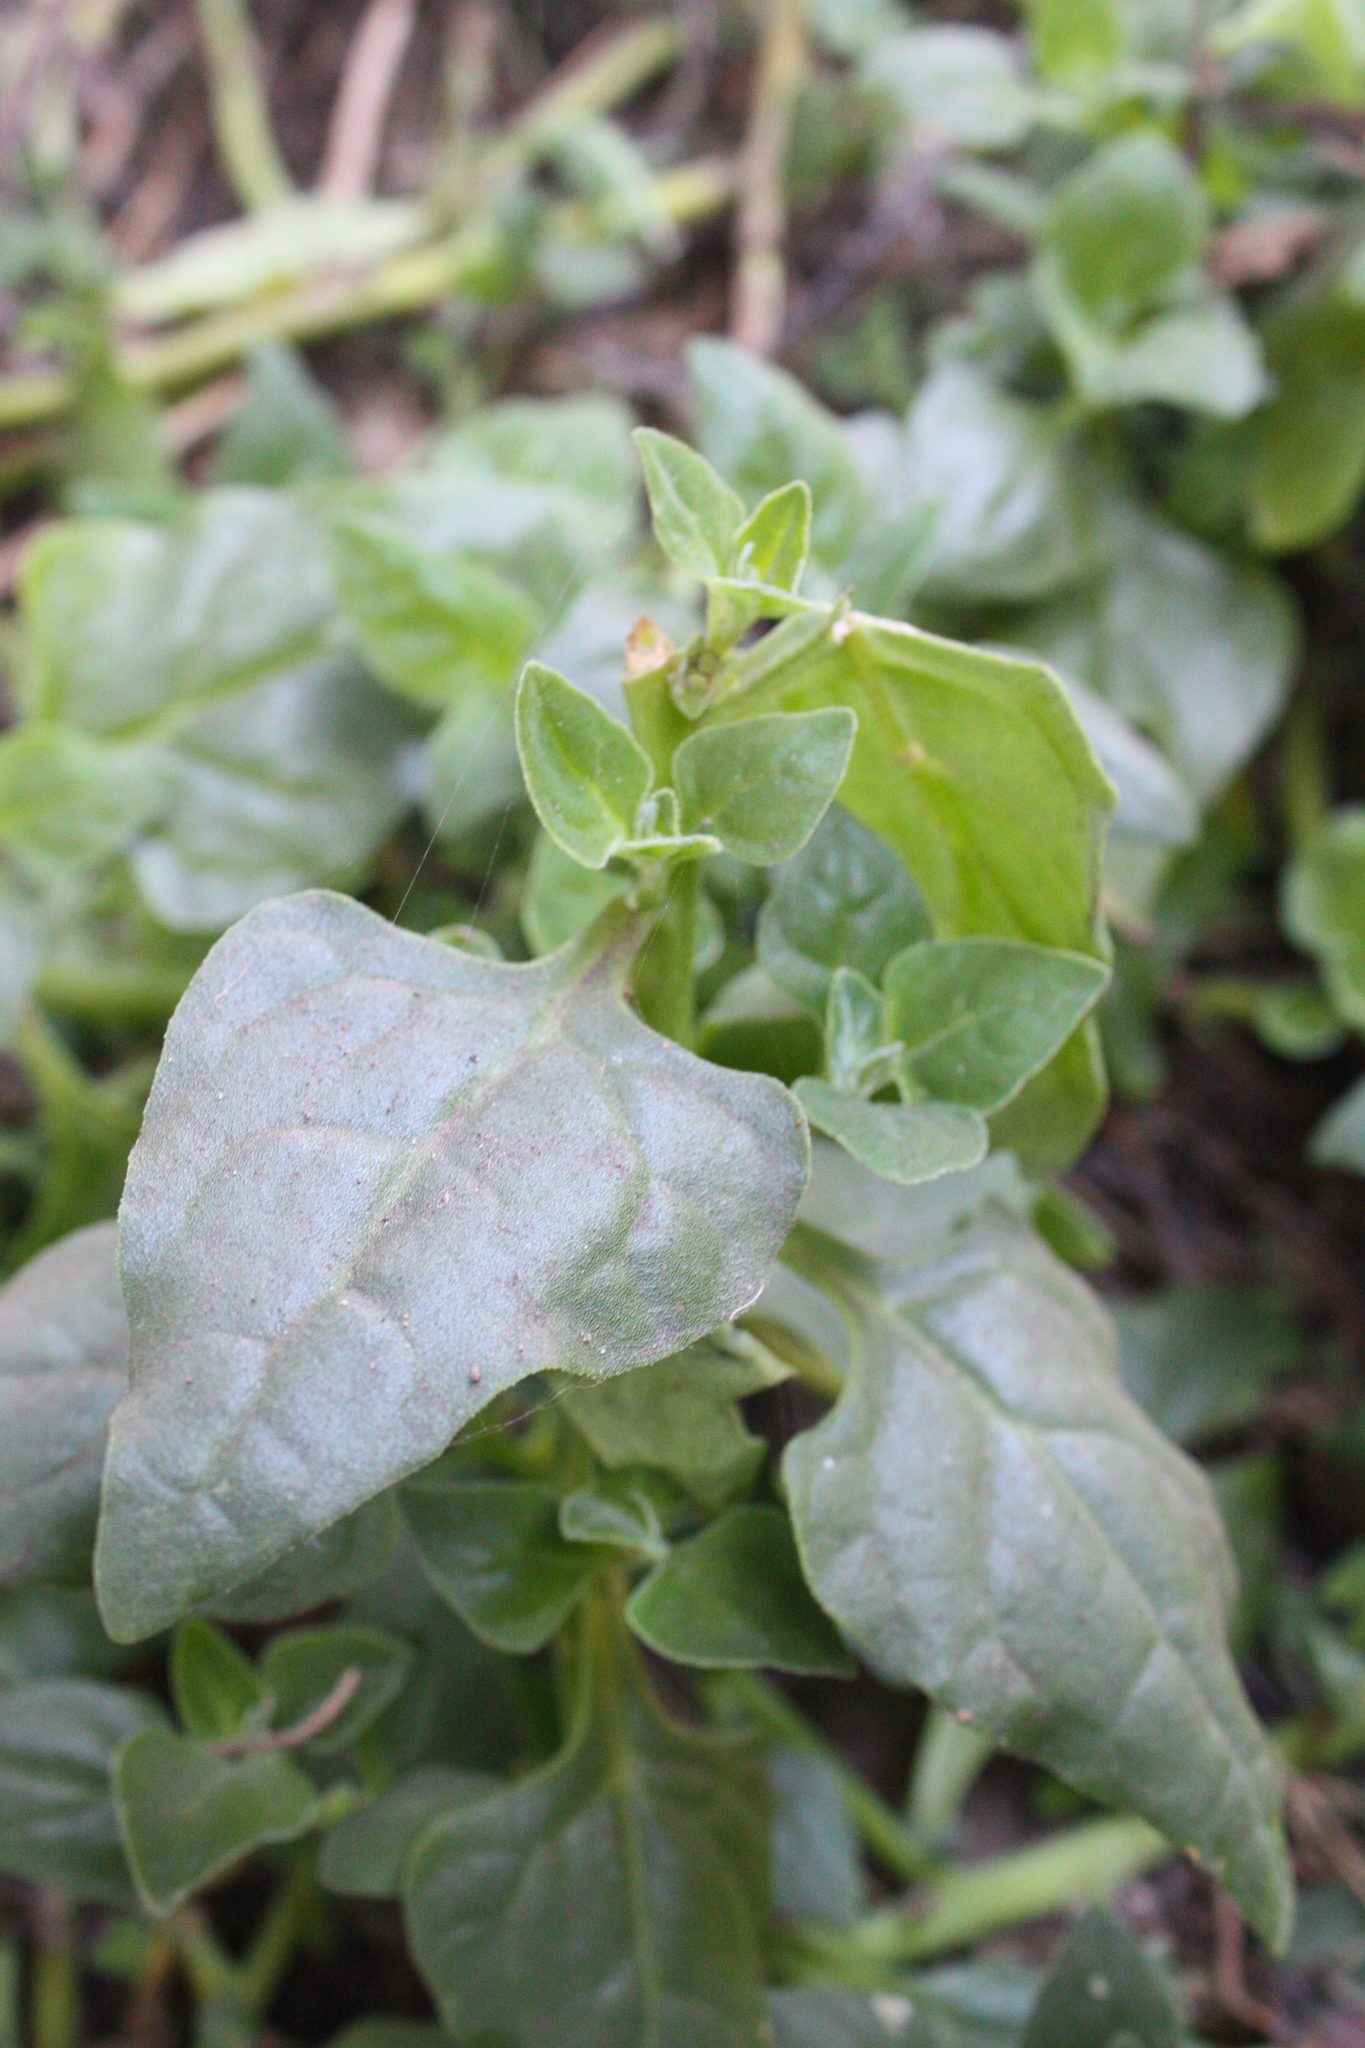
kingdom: Plantae
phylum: Tracheophyta
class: Magnoliopsida
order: Caryophyllales
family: Aizoaceae
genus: Tetragonia
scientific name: Tetragonia tetragonoides
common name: New zealand-spinach
